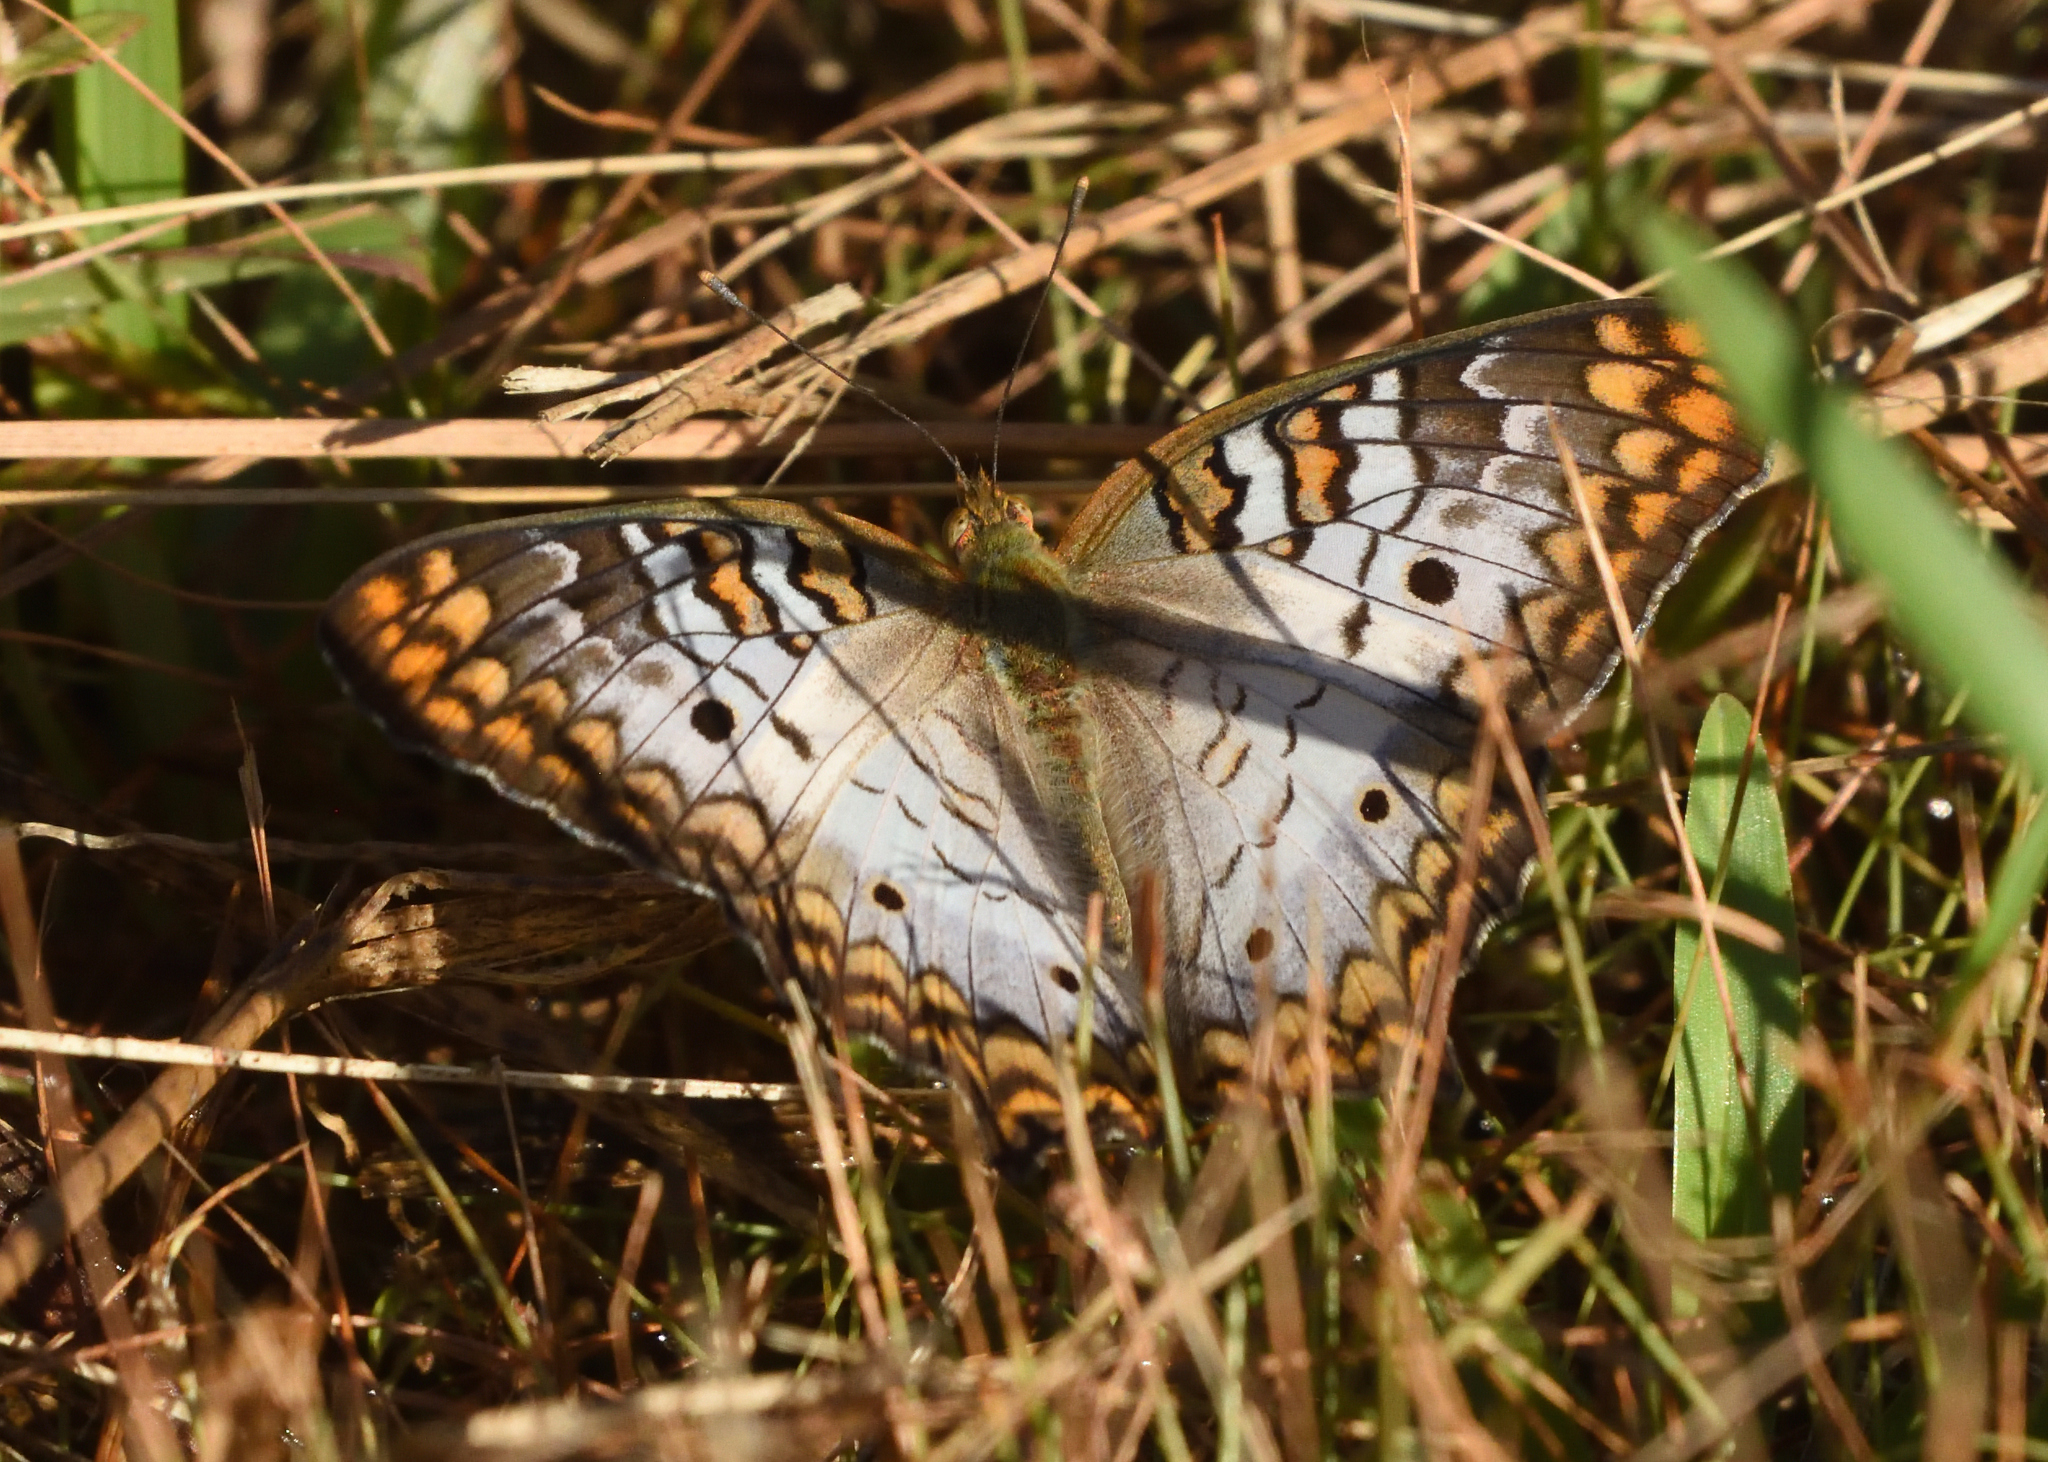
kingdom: Animalia
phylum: Arthropoda
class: Insecta
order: Lepidoptera
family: Nymphalidae
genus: Anartia
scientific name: Anartia jatrophae
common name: White peacock
